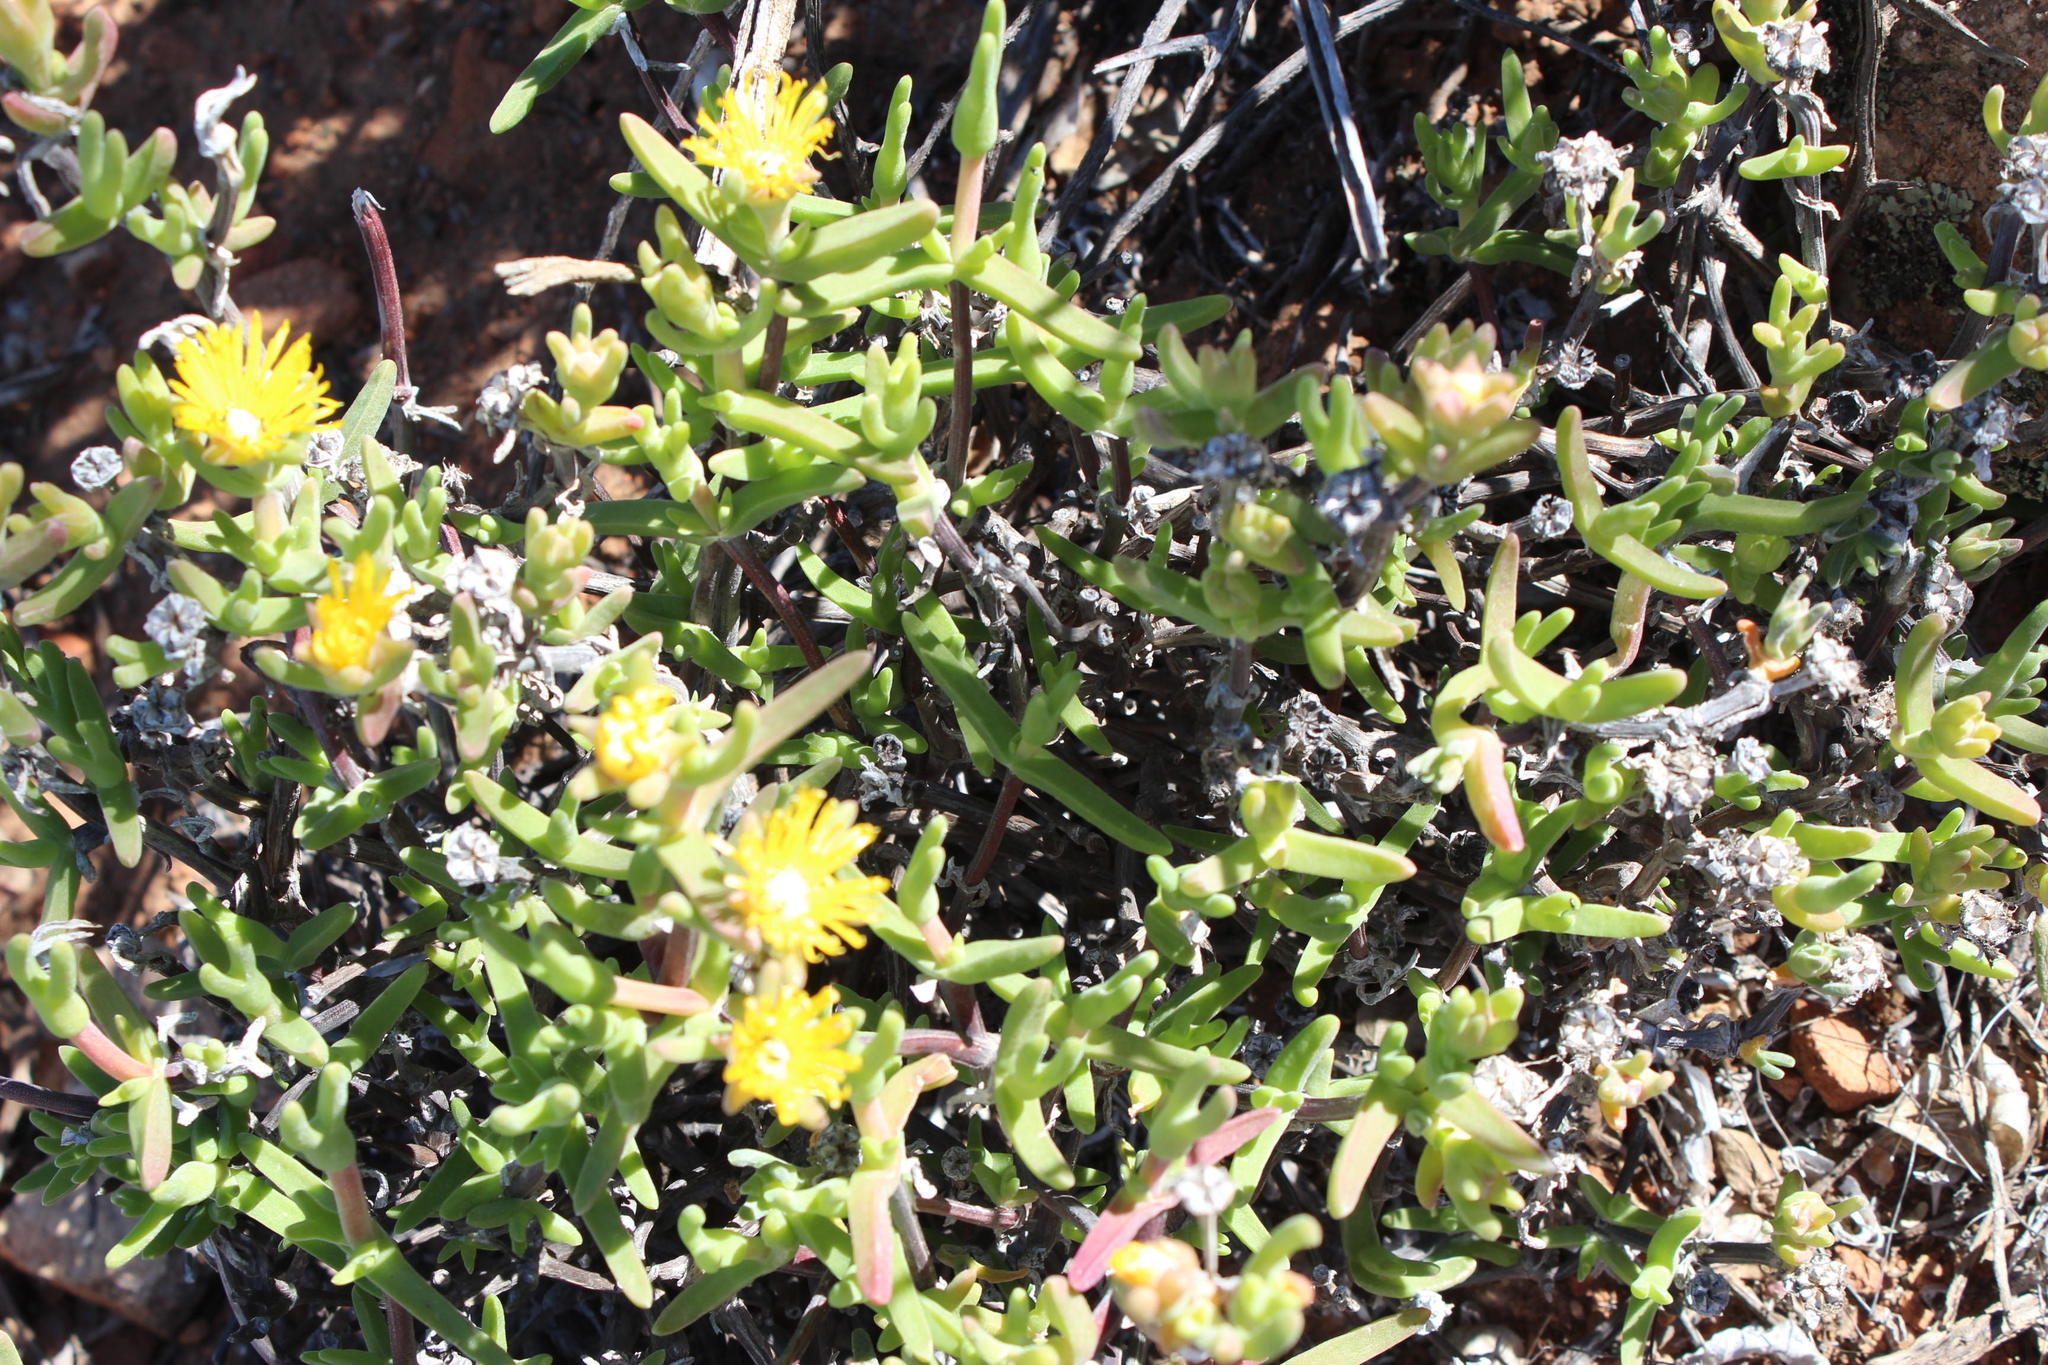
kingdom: Plantae
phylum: Tracheophyta
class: Magnoliopsida
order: Caryophyllales
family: Aizoaceae
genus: Mitrophyllum
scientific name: Mitrophyllum clivorum
